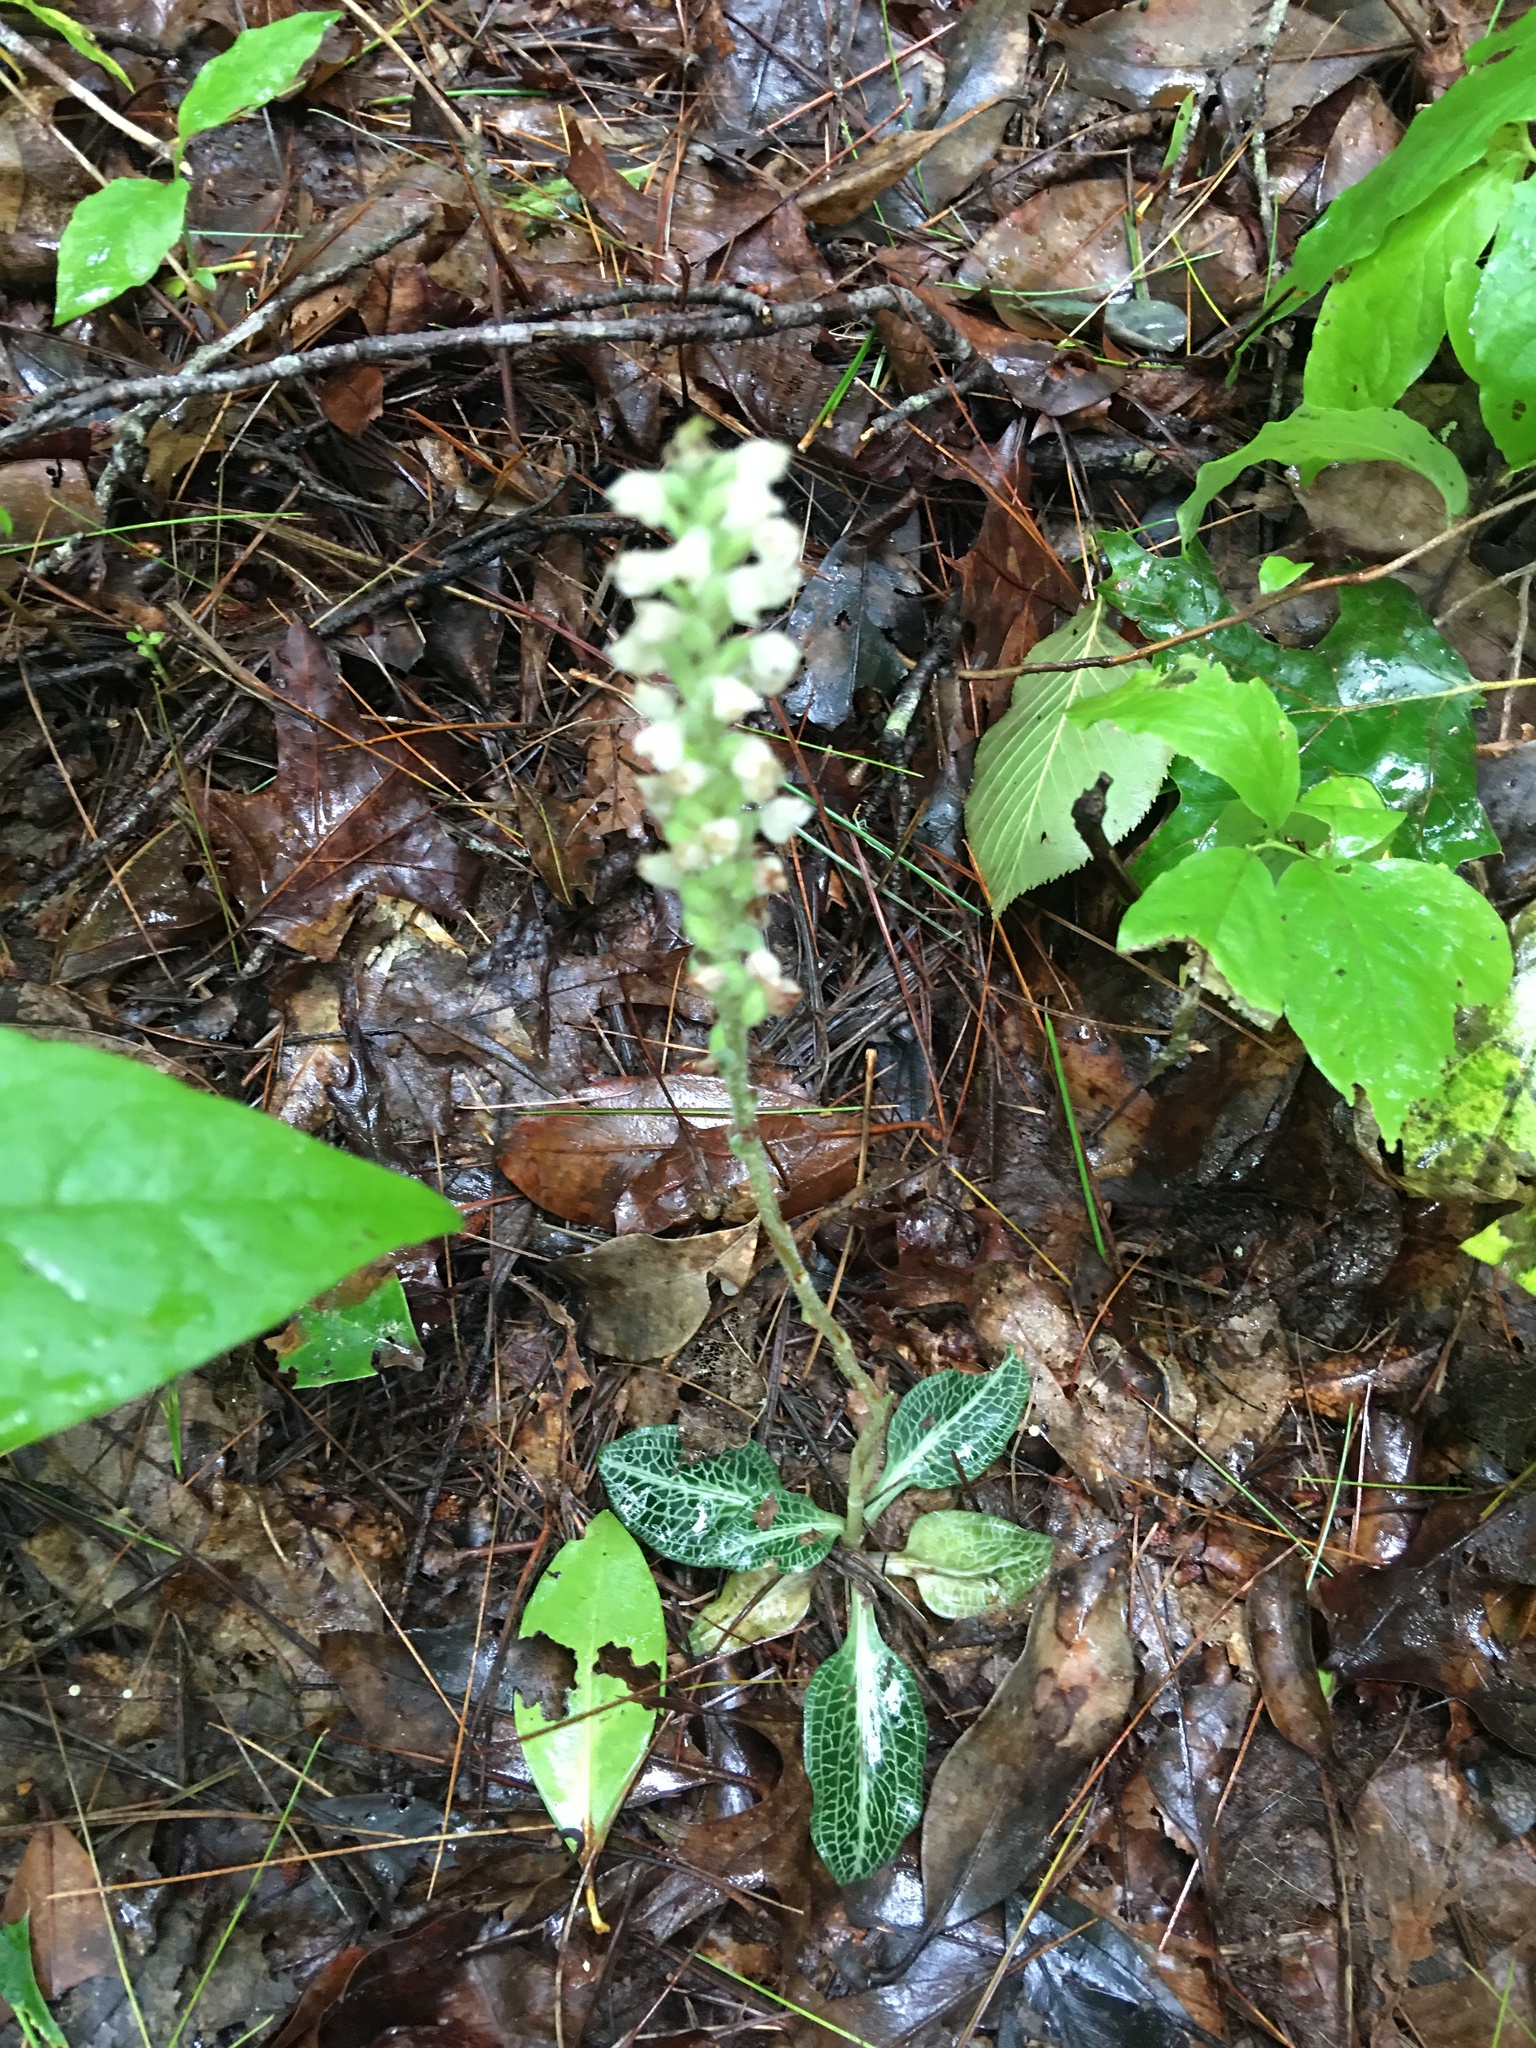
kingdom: Plantae
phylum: Tracheophyta
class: Liliopsida
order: Asparagales
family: Orchidaceae
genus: Goodyera
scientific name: Goodyera pubescens
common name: Downy rattlesnake-plantain
